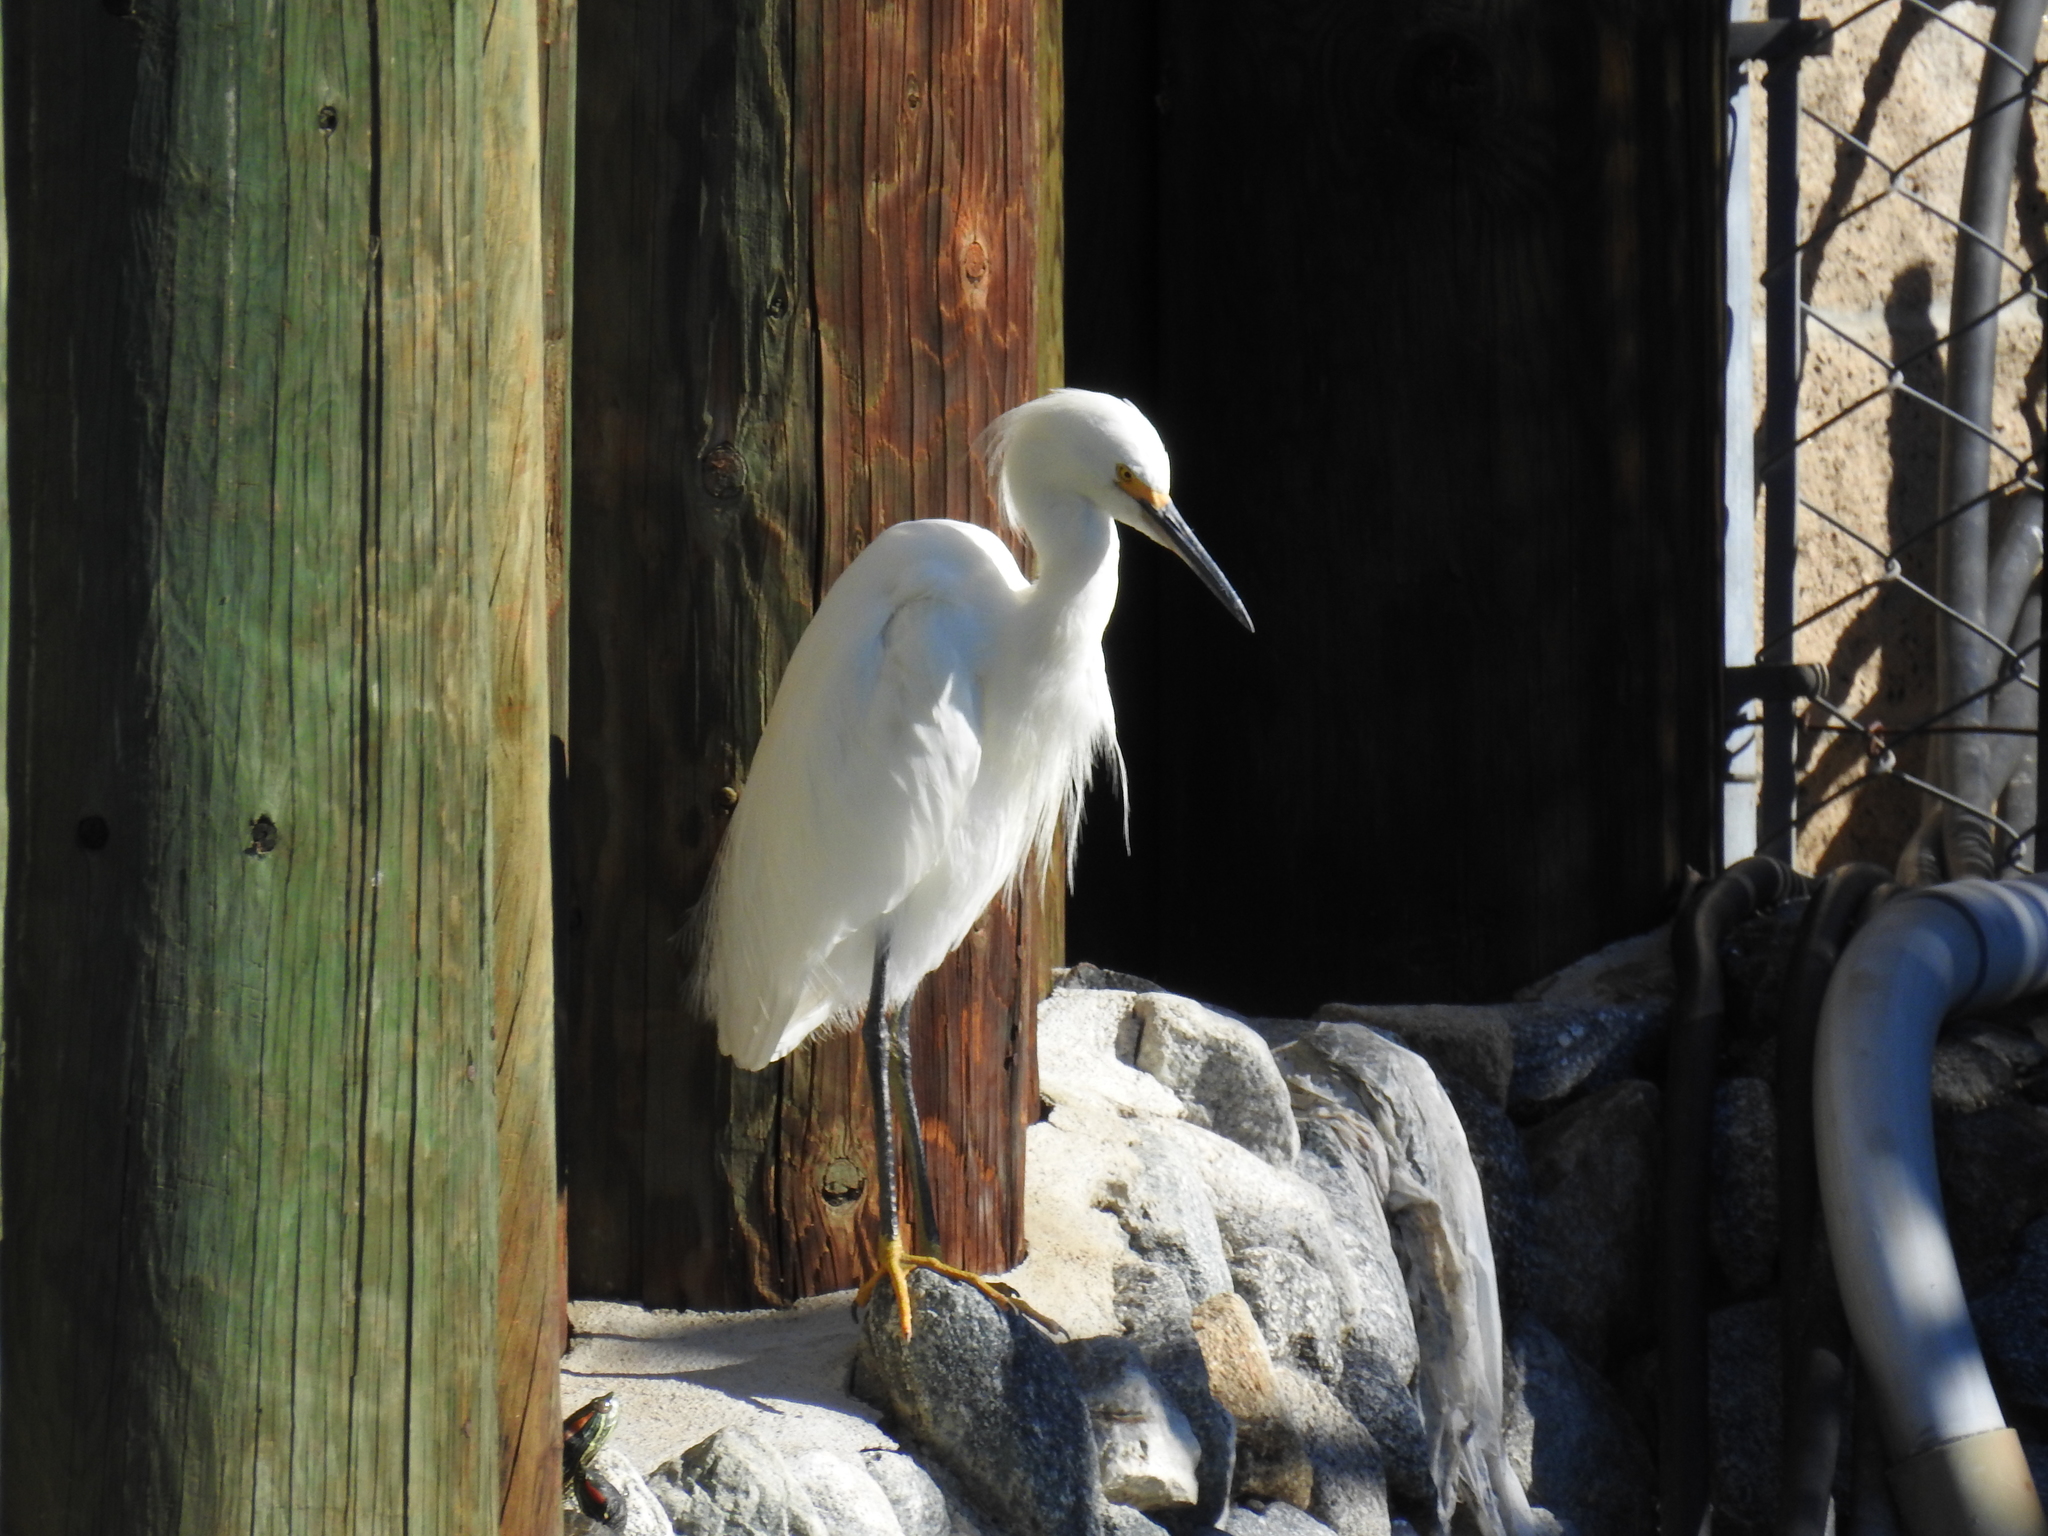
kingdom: Animalia
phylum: Chordata
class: Aves
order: Pelecaniformes
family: Ardeidae
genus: Egretta
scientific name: Egretta thula
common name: Snowy egret
